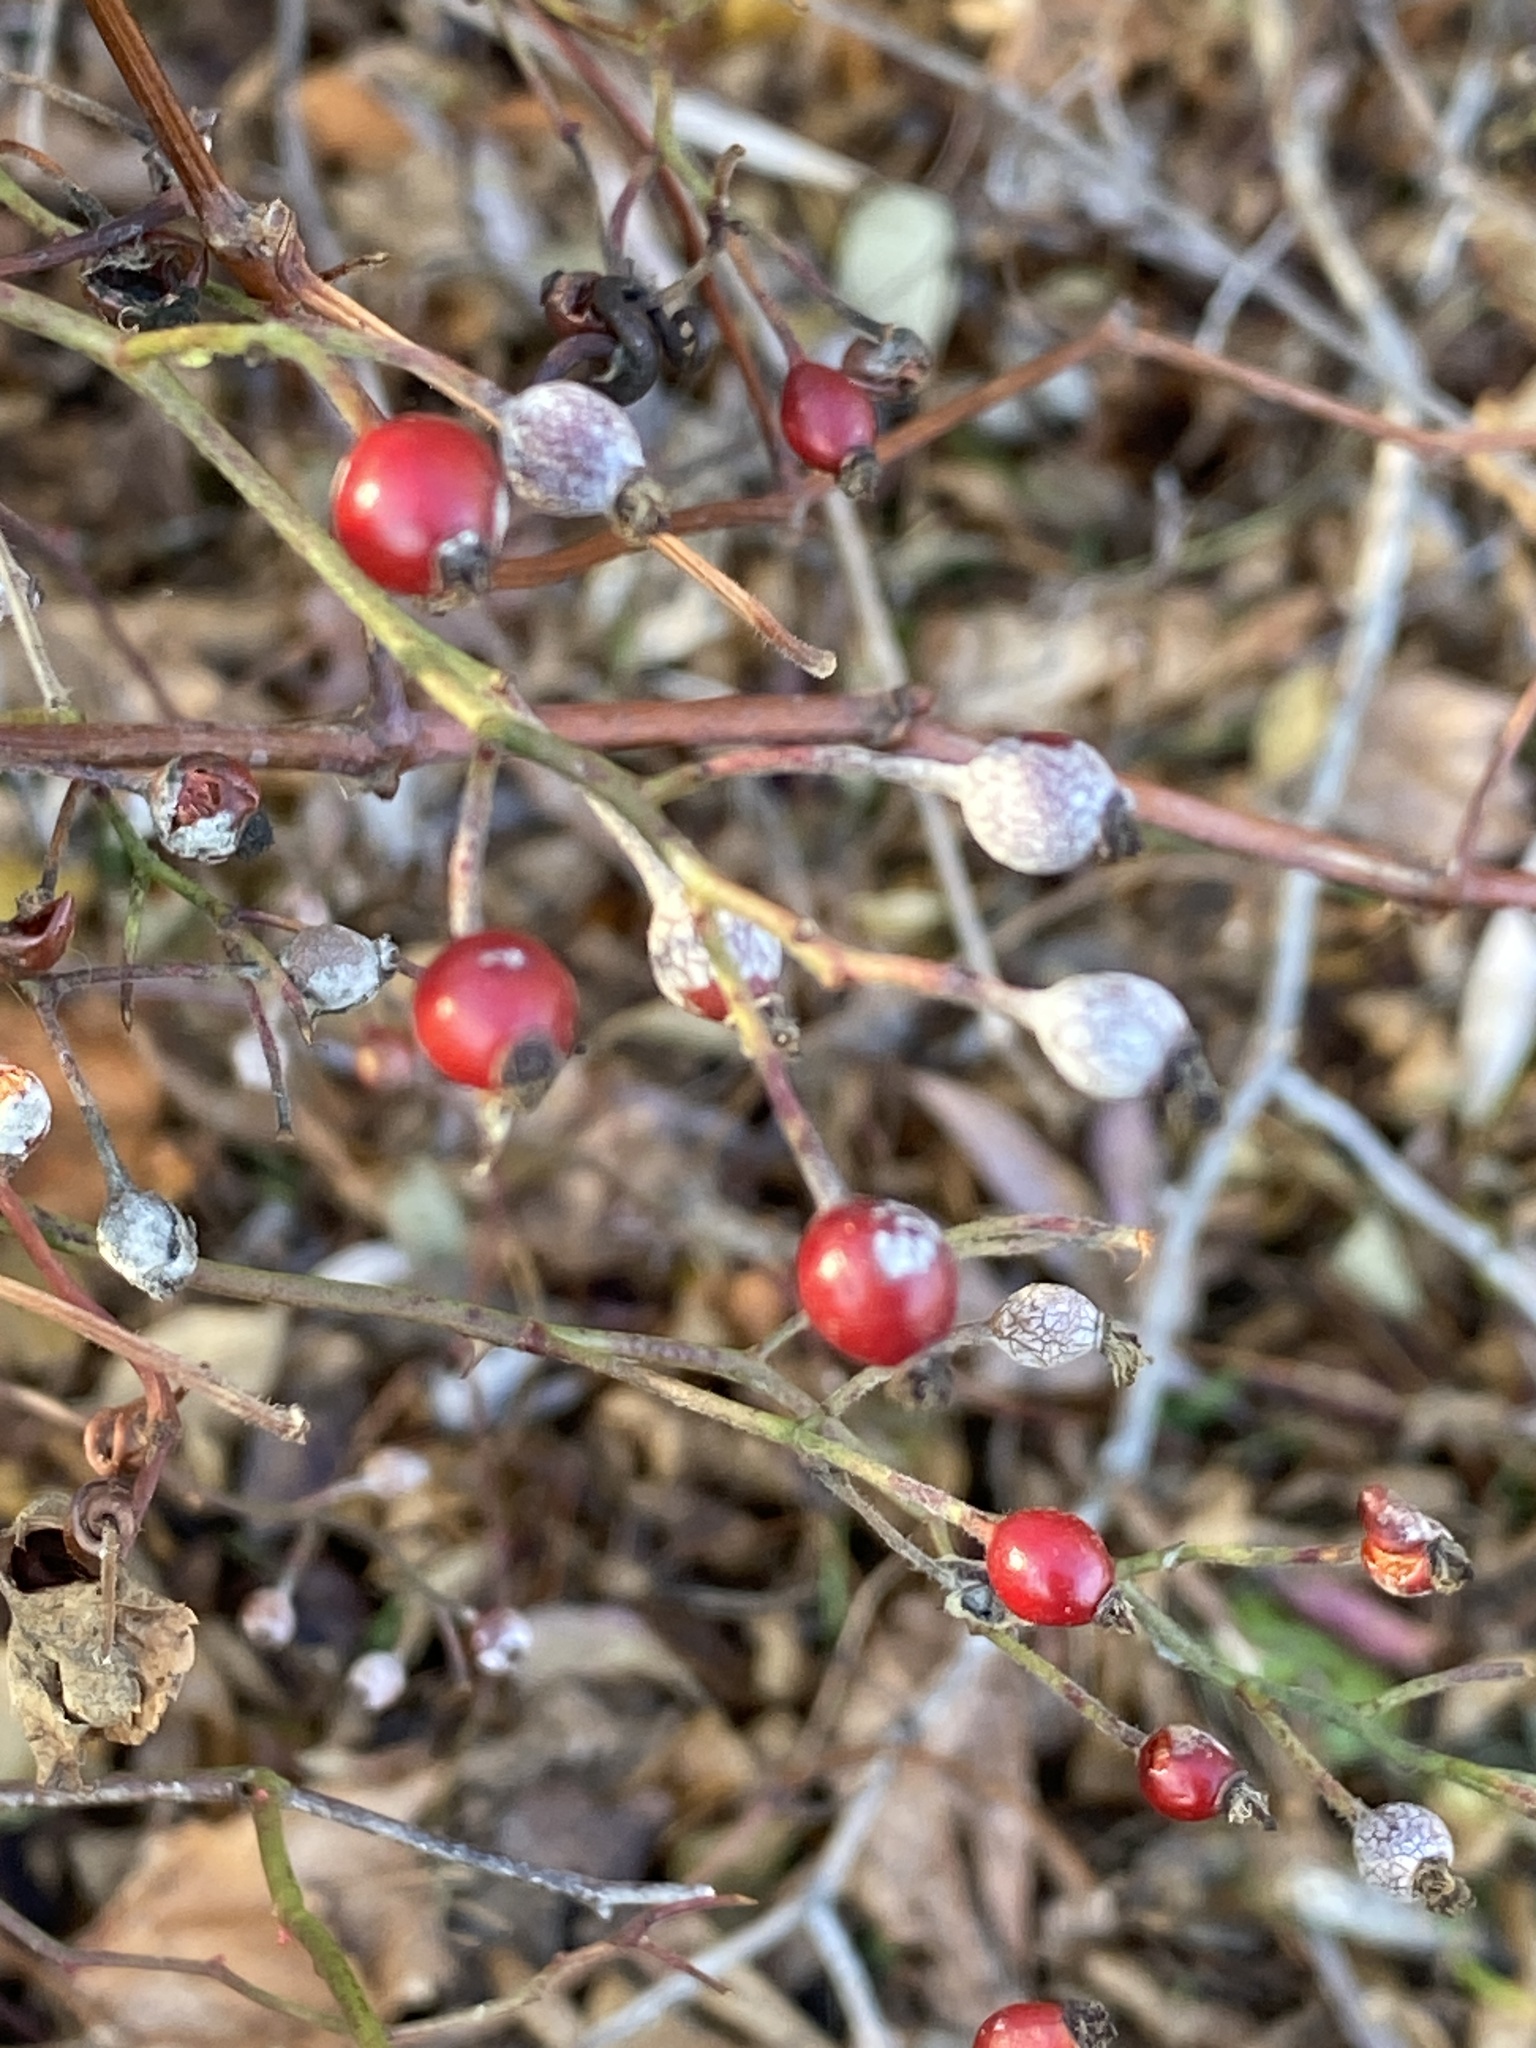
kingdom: Plantae
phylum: Tracheophyta
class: Magnoliopsida
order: Rosales
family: Rosaceae
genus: Rosa
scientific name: Rosa multiflora
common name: Multiflora rose
